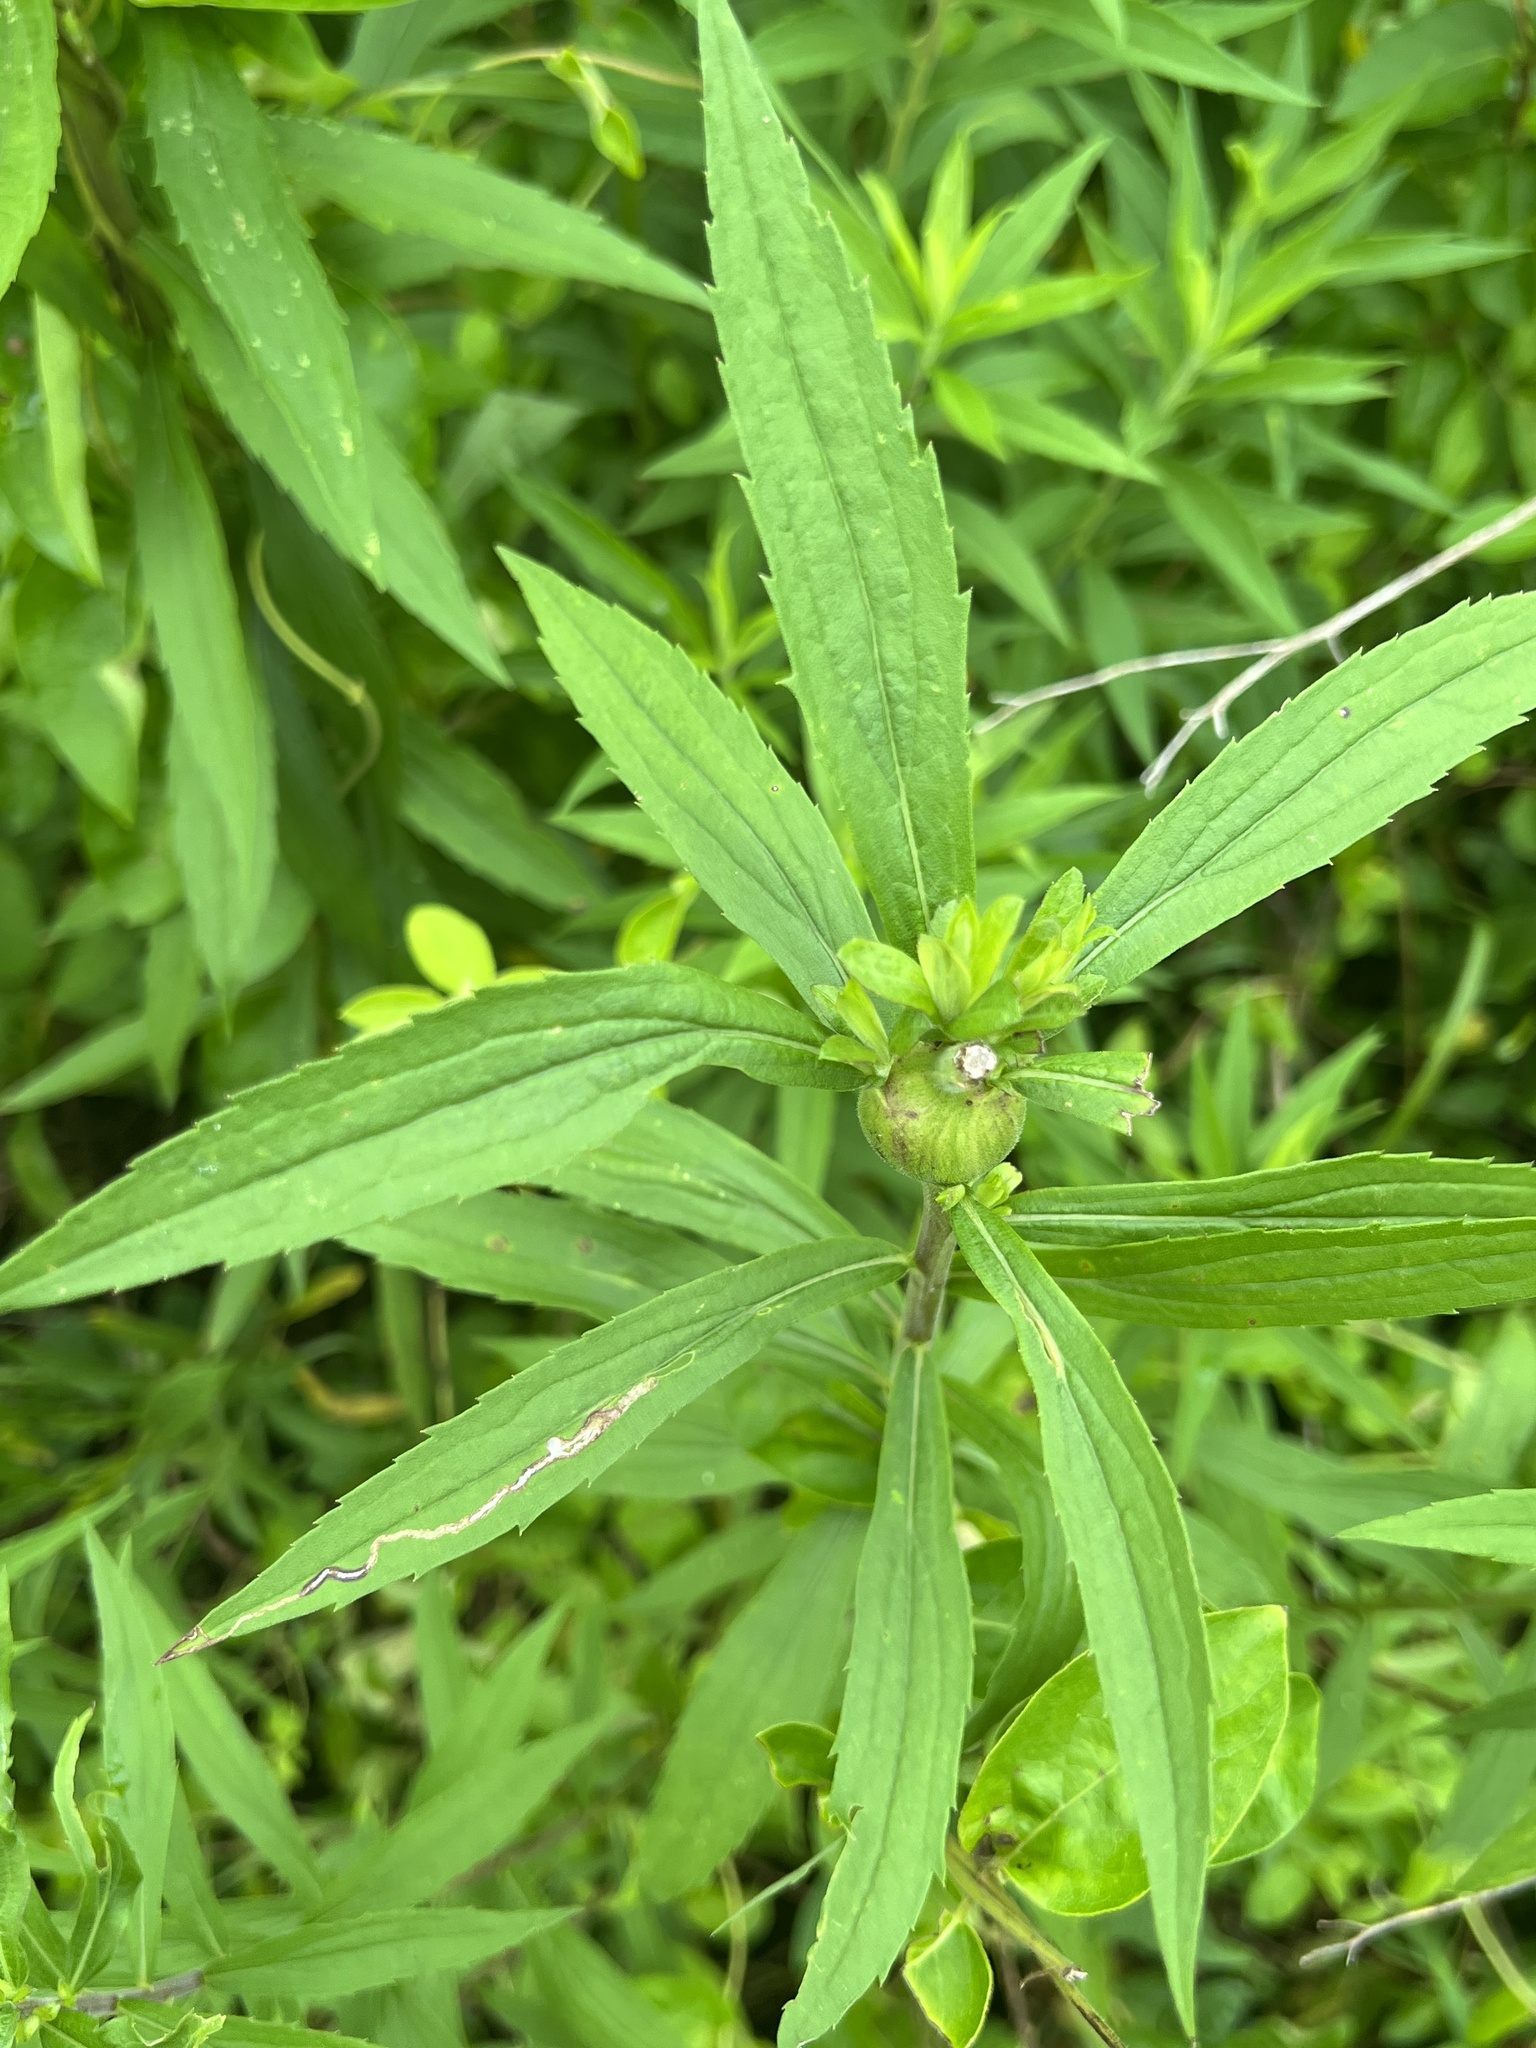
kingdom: Animalia
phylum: Arthropoda
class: Insecta
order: Diptera
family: Tephritidae
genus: Eurosta
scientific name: Eurosta solidaginis
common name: Goldenrod gall fly
